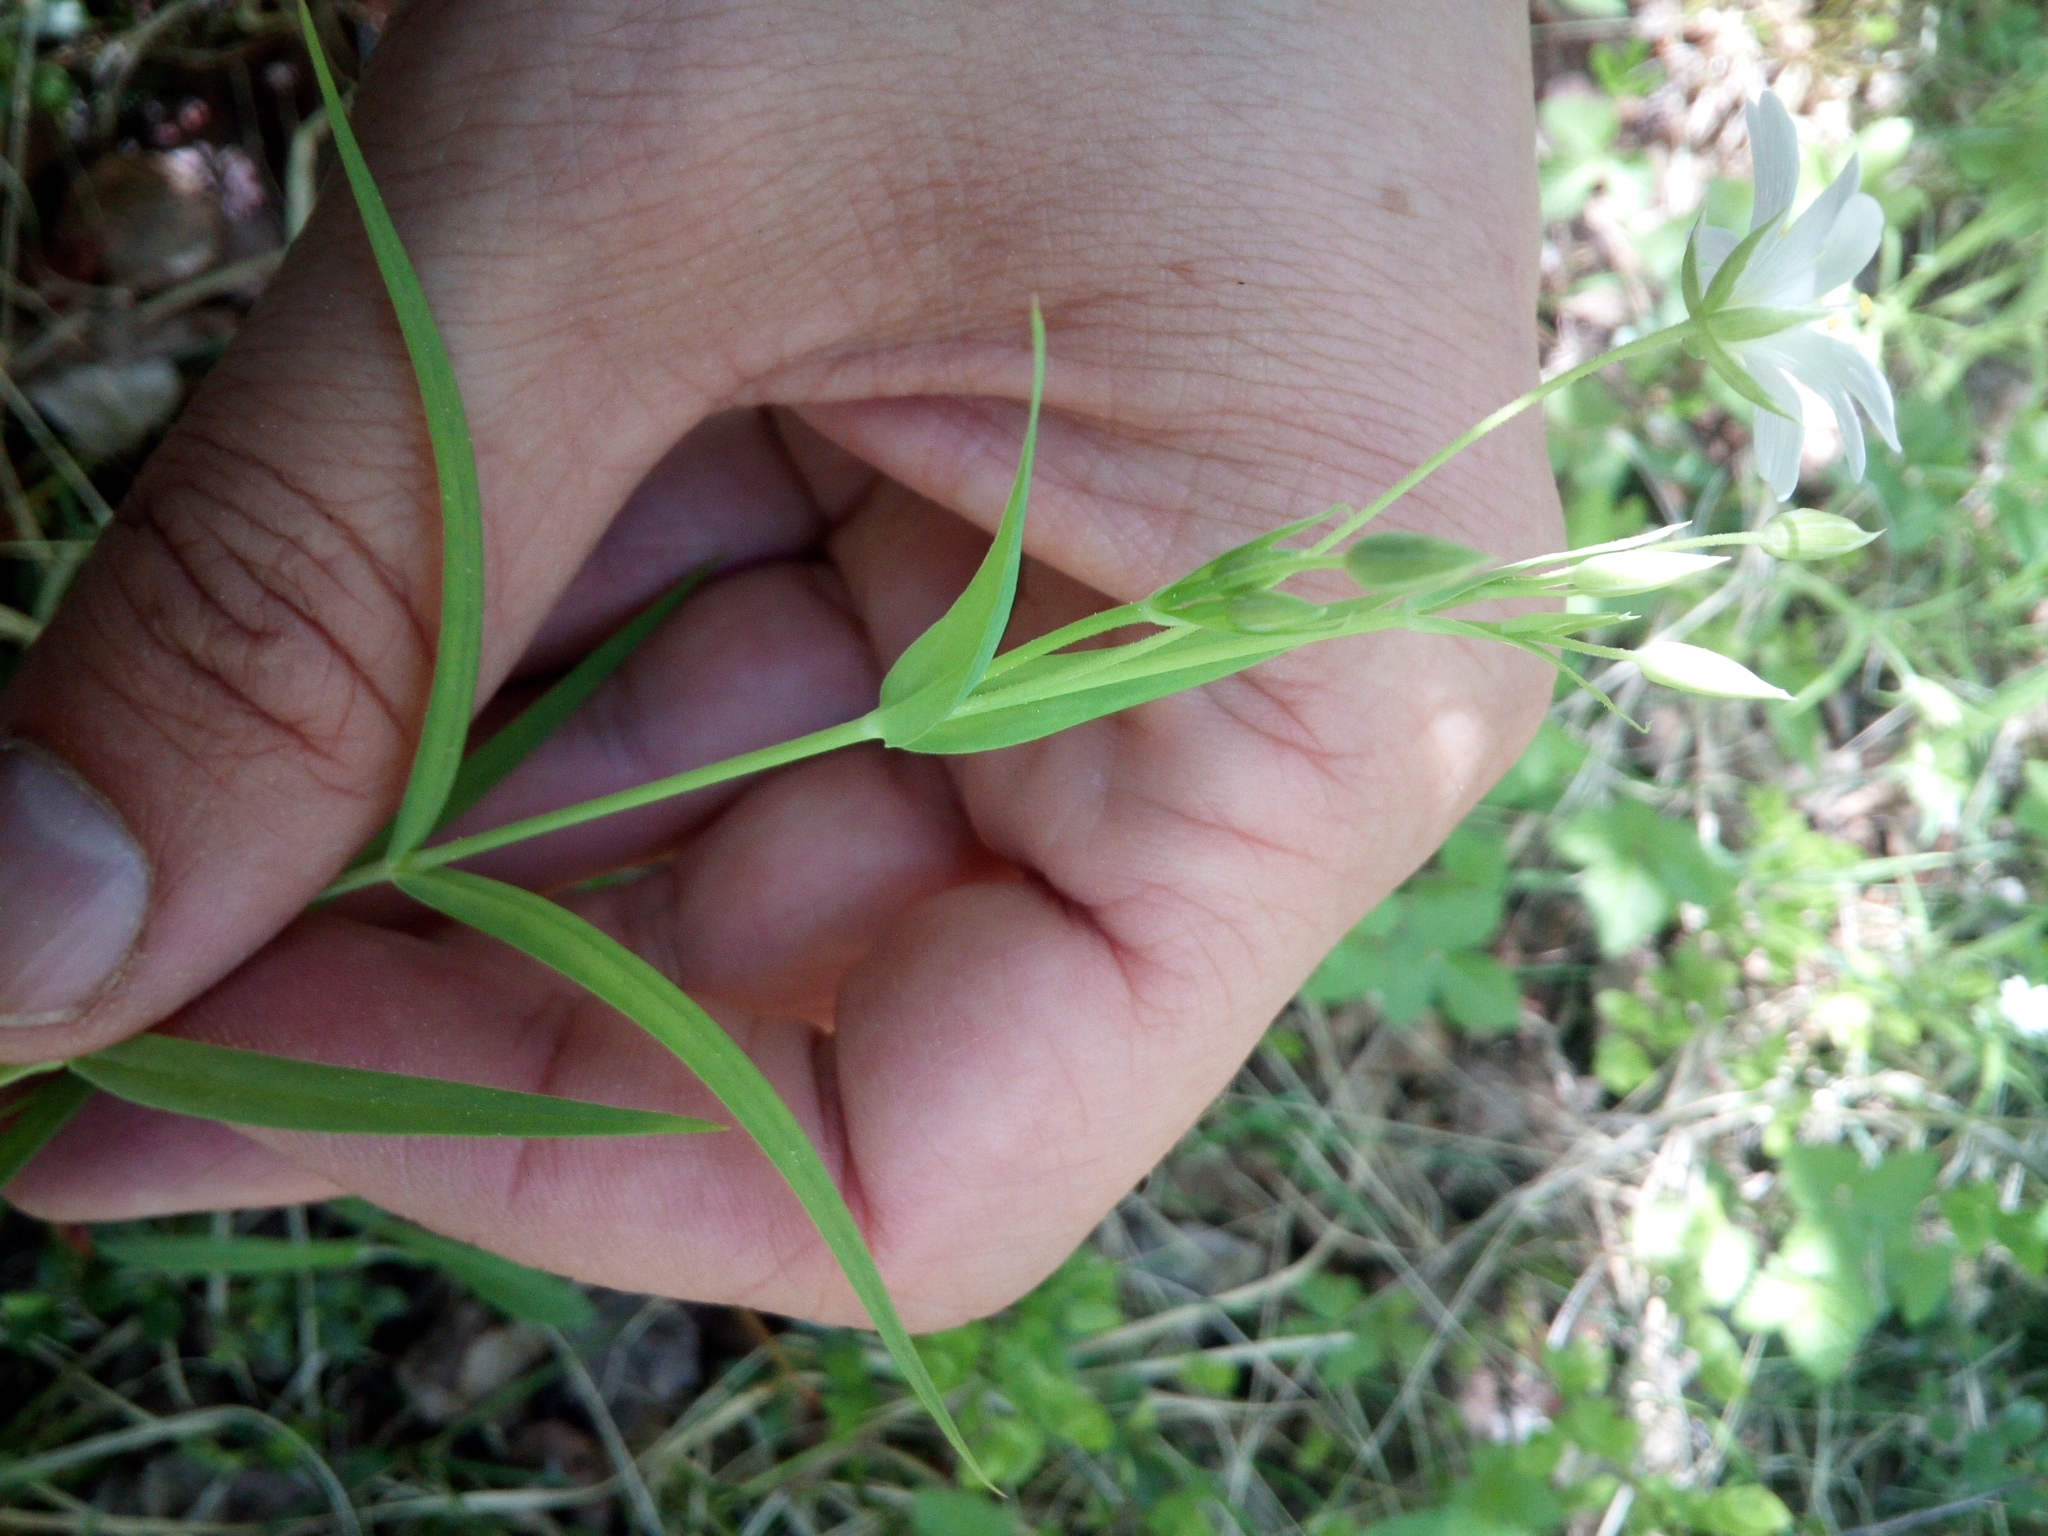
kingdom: Plantae
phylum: Tracheophyta
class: Magnoliopsida
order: Caryophyllales
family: Caryophyllaceae
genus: Rabelera
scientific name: Rabelera holostea
